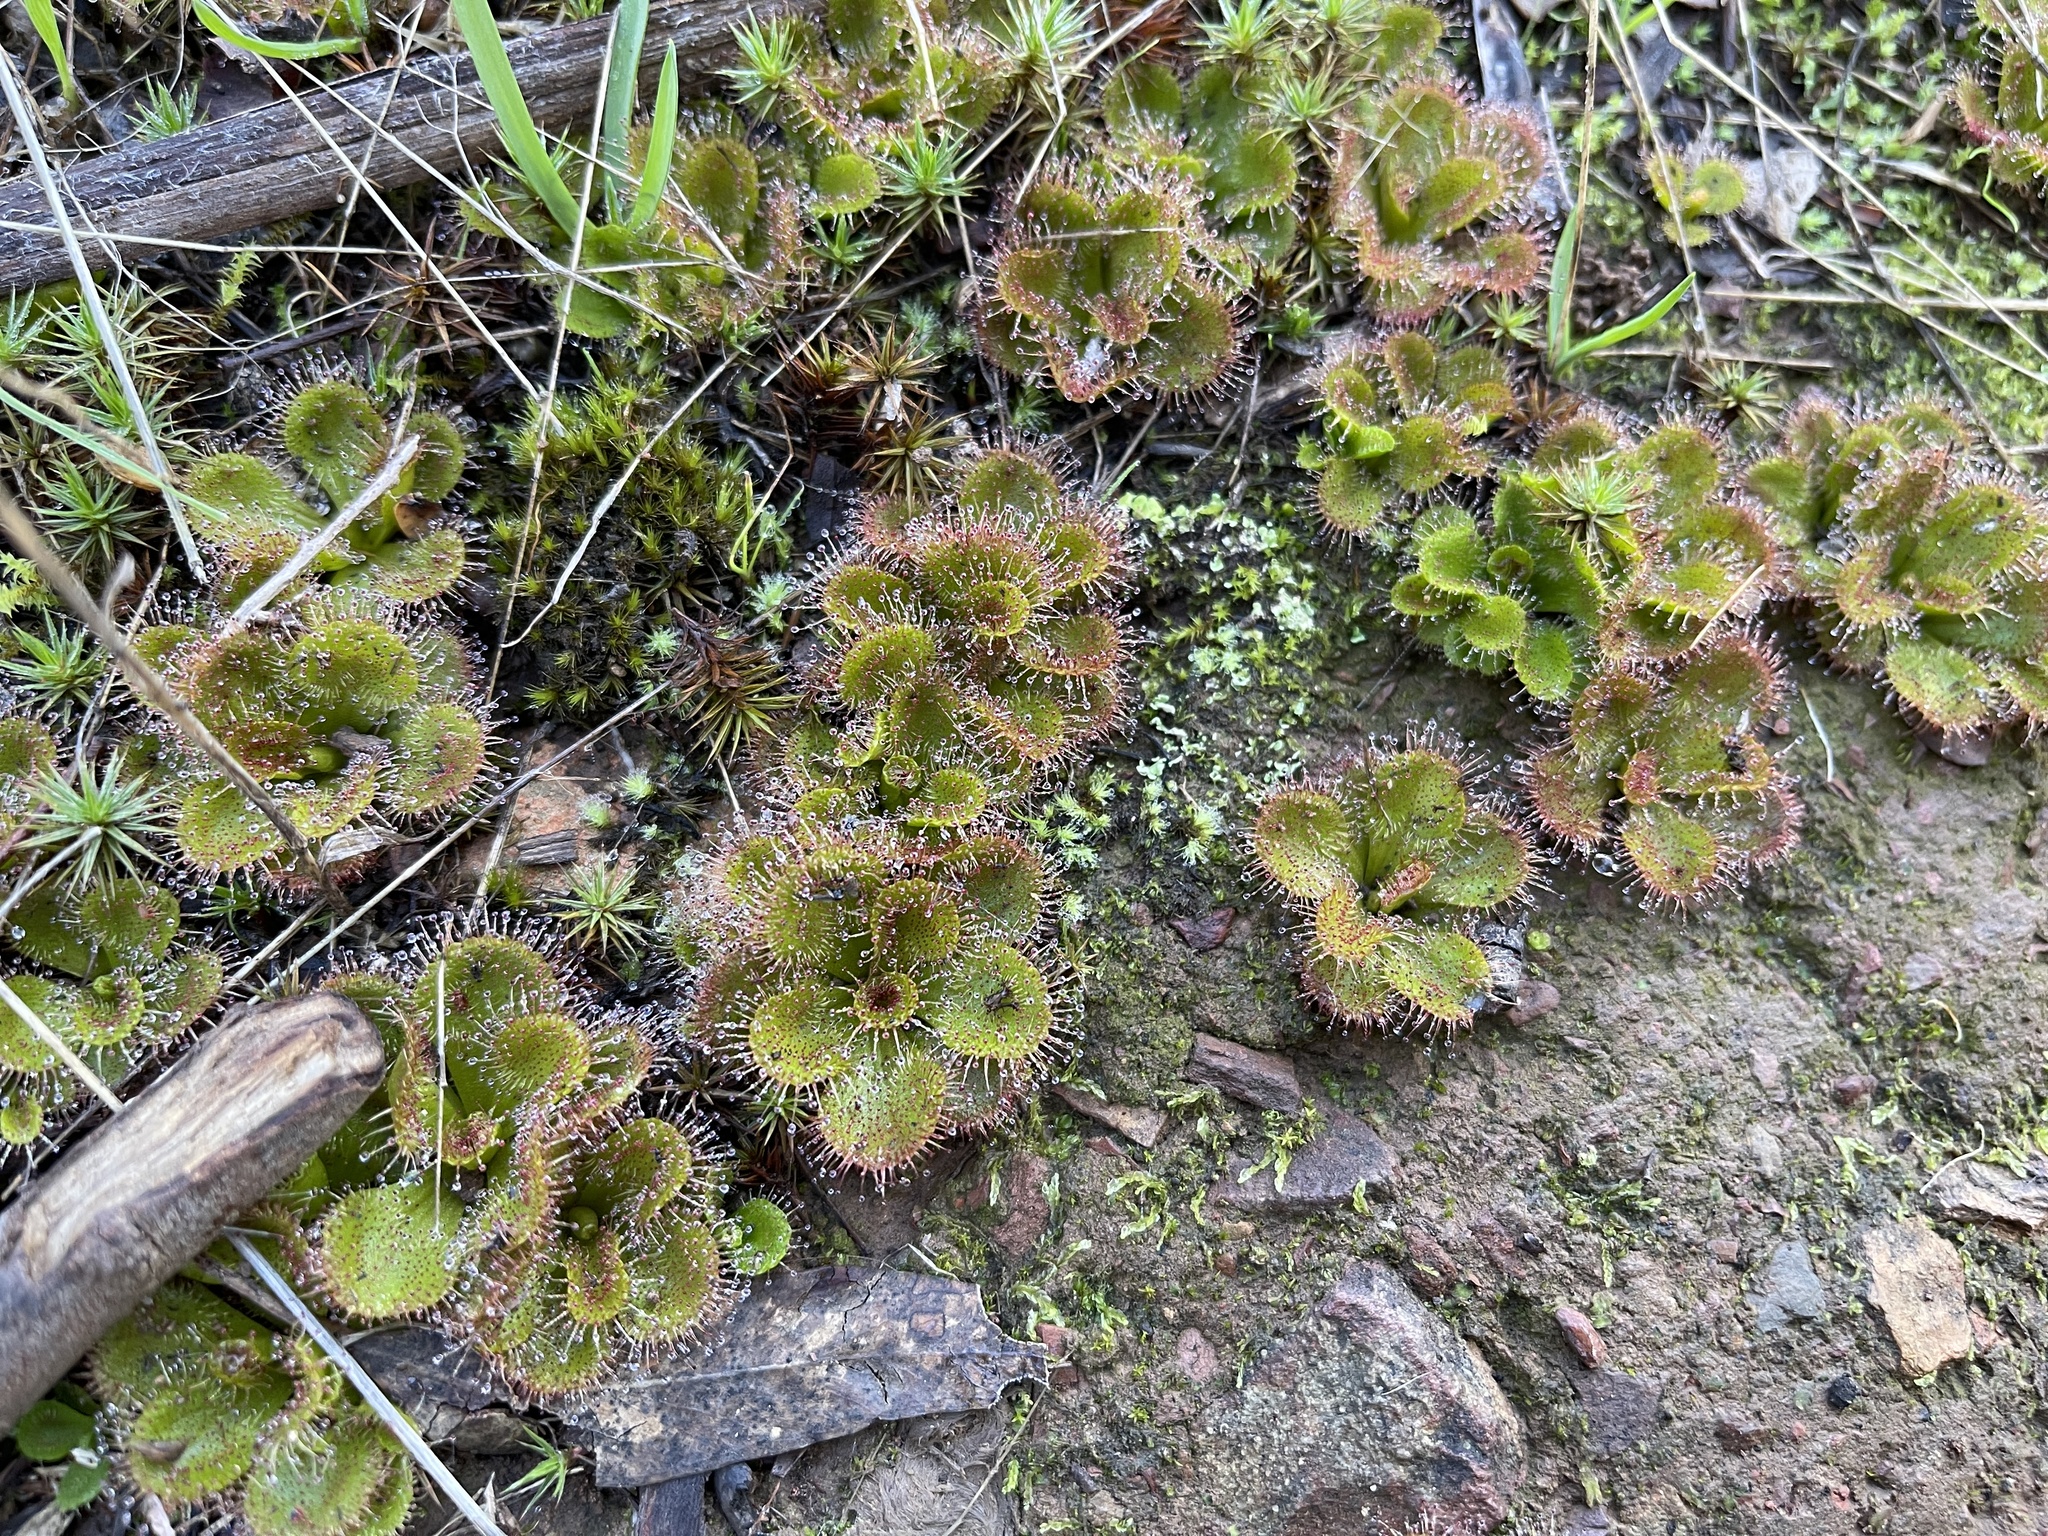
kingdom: Plantae
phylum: Tracheophyta
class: Magnoliopsida
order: Caryophyllales
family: Droseraceae
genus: Drosera
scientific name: Drosera aberrans
